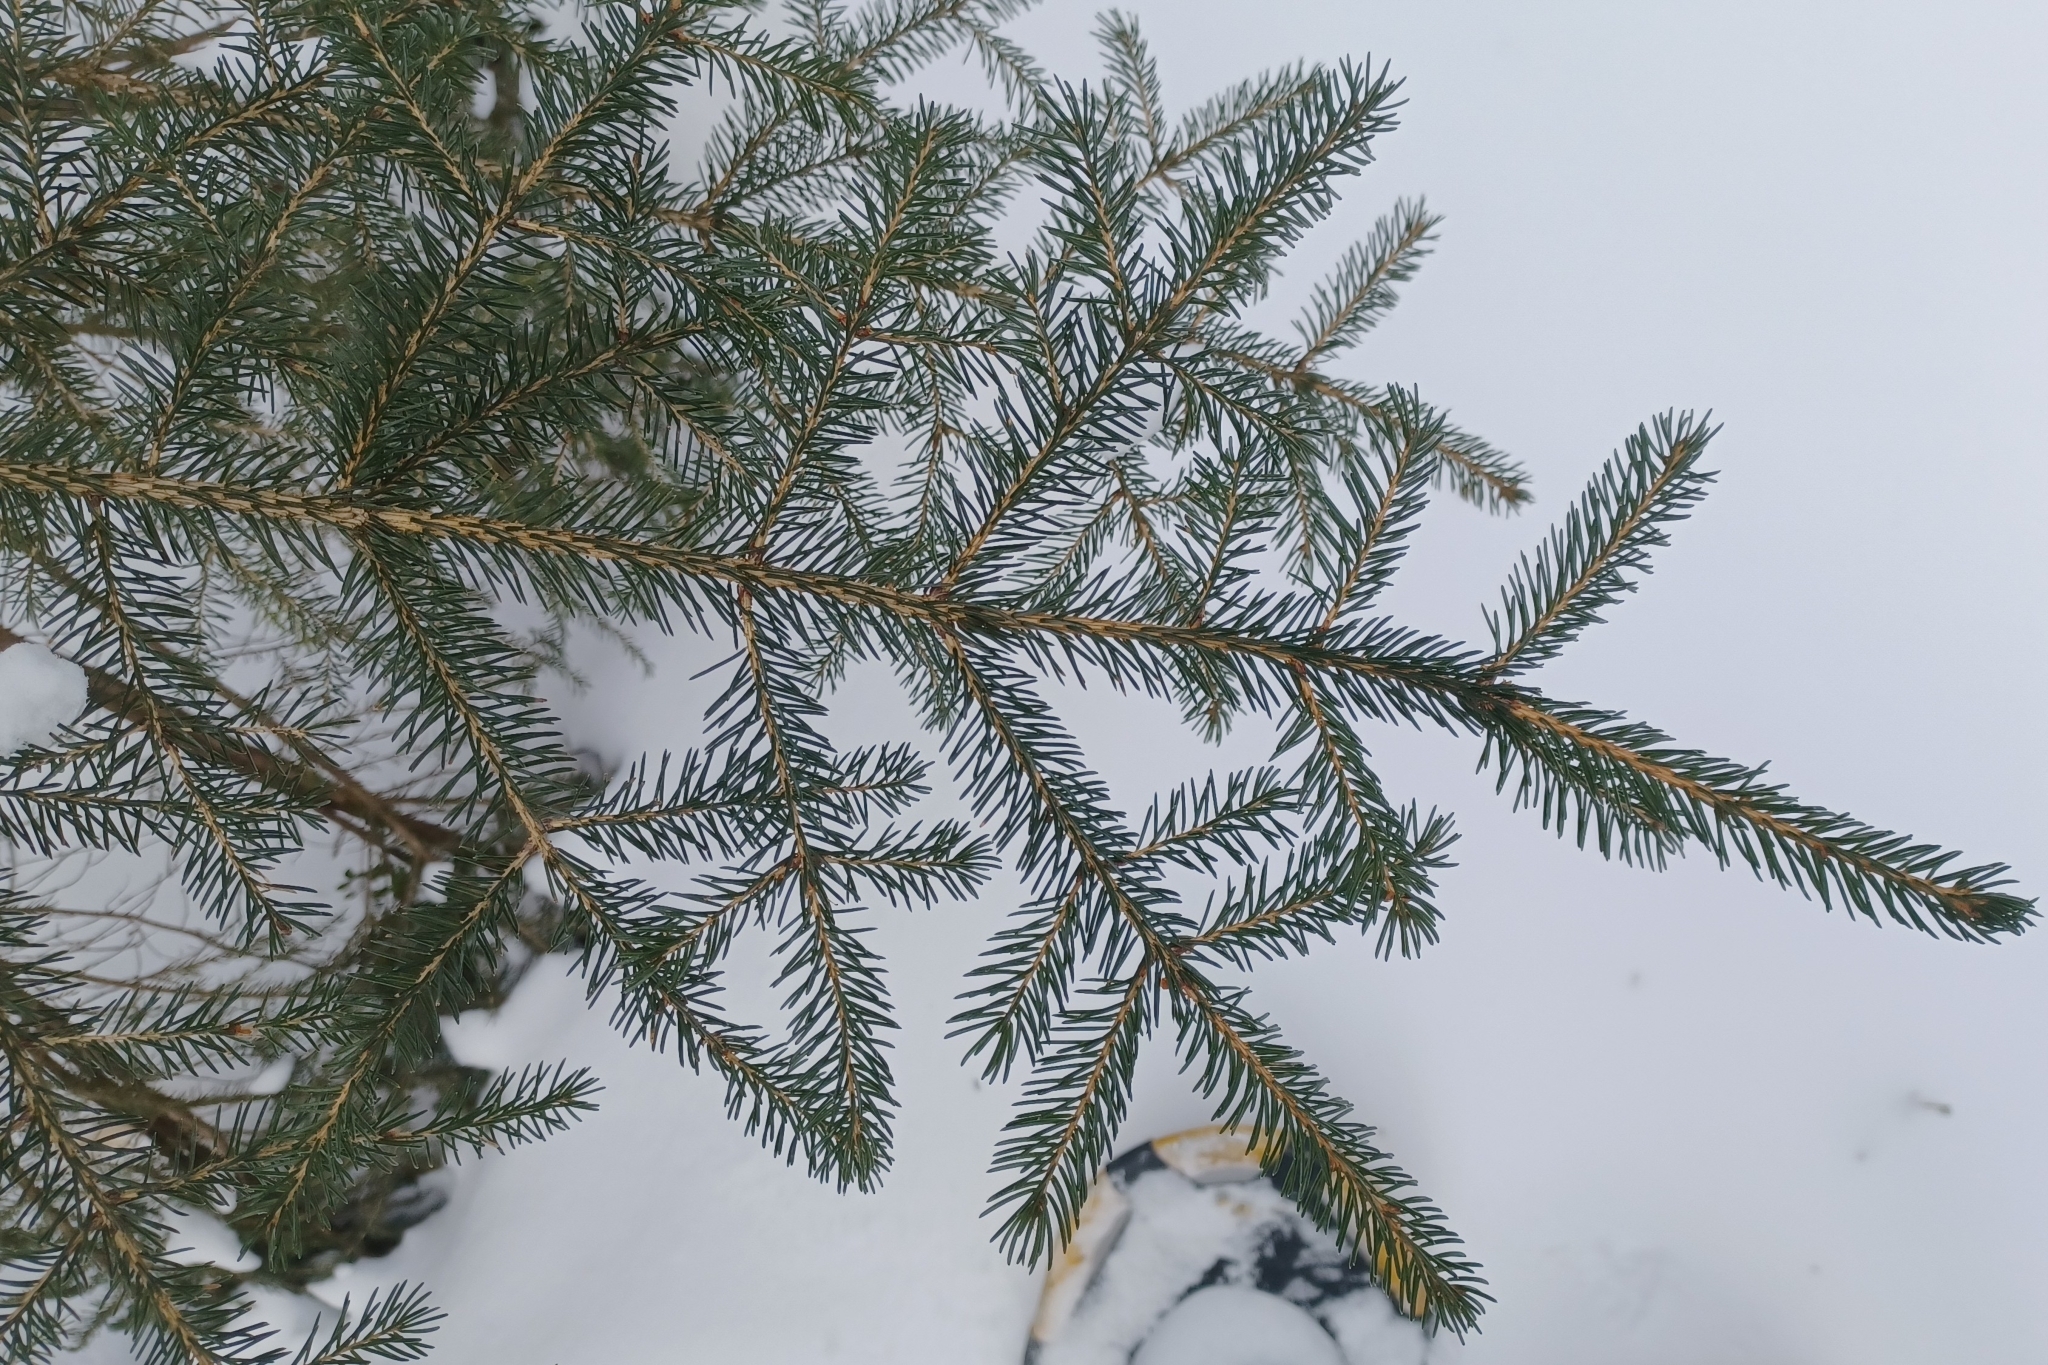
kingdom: Plantae
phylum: Tracheophyta
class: Pinopsida
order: Pinales
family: Pinaceae
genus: Picea
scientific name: Picea rubens
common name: Red spruce
